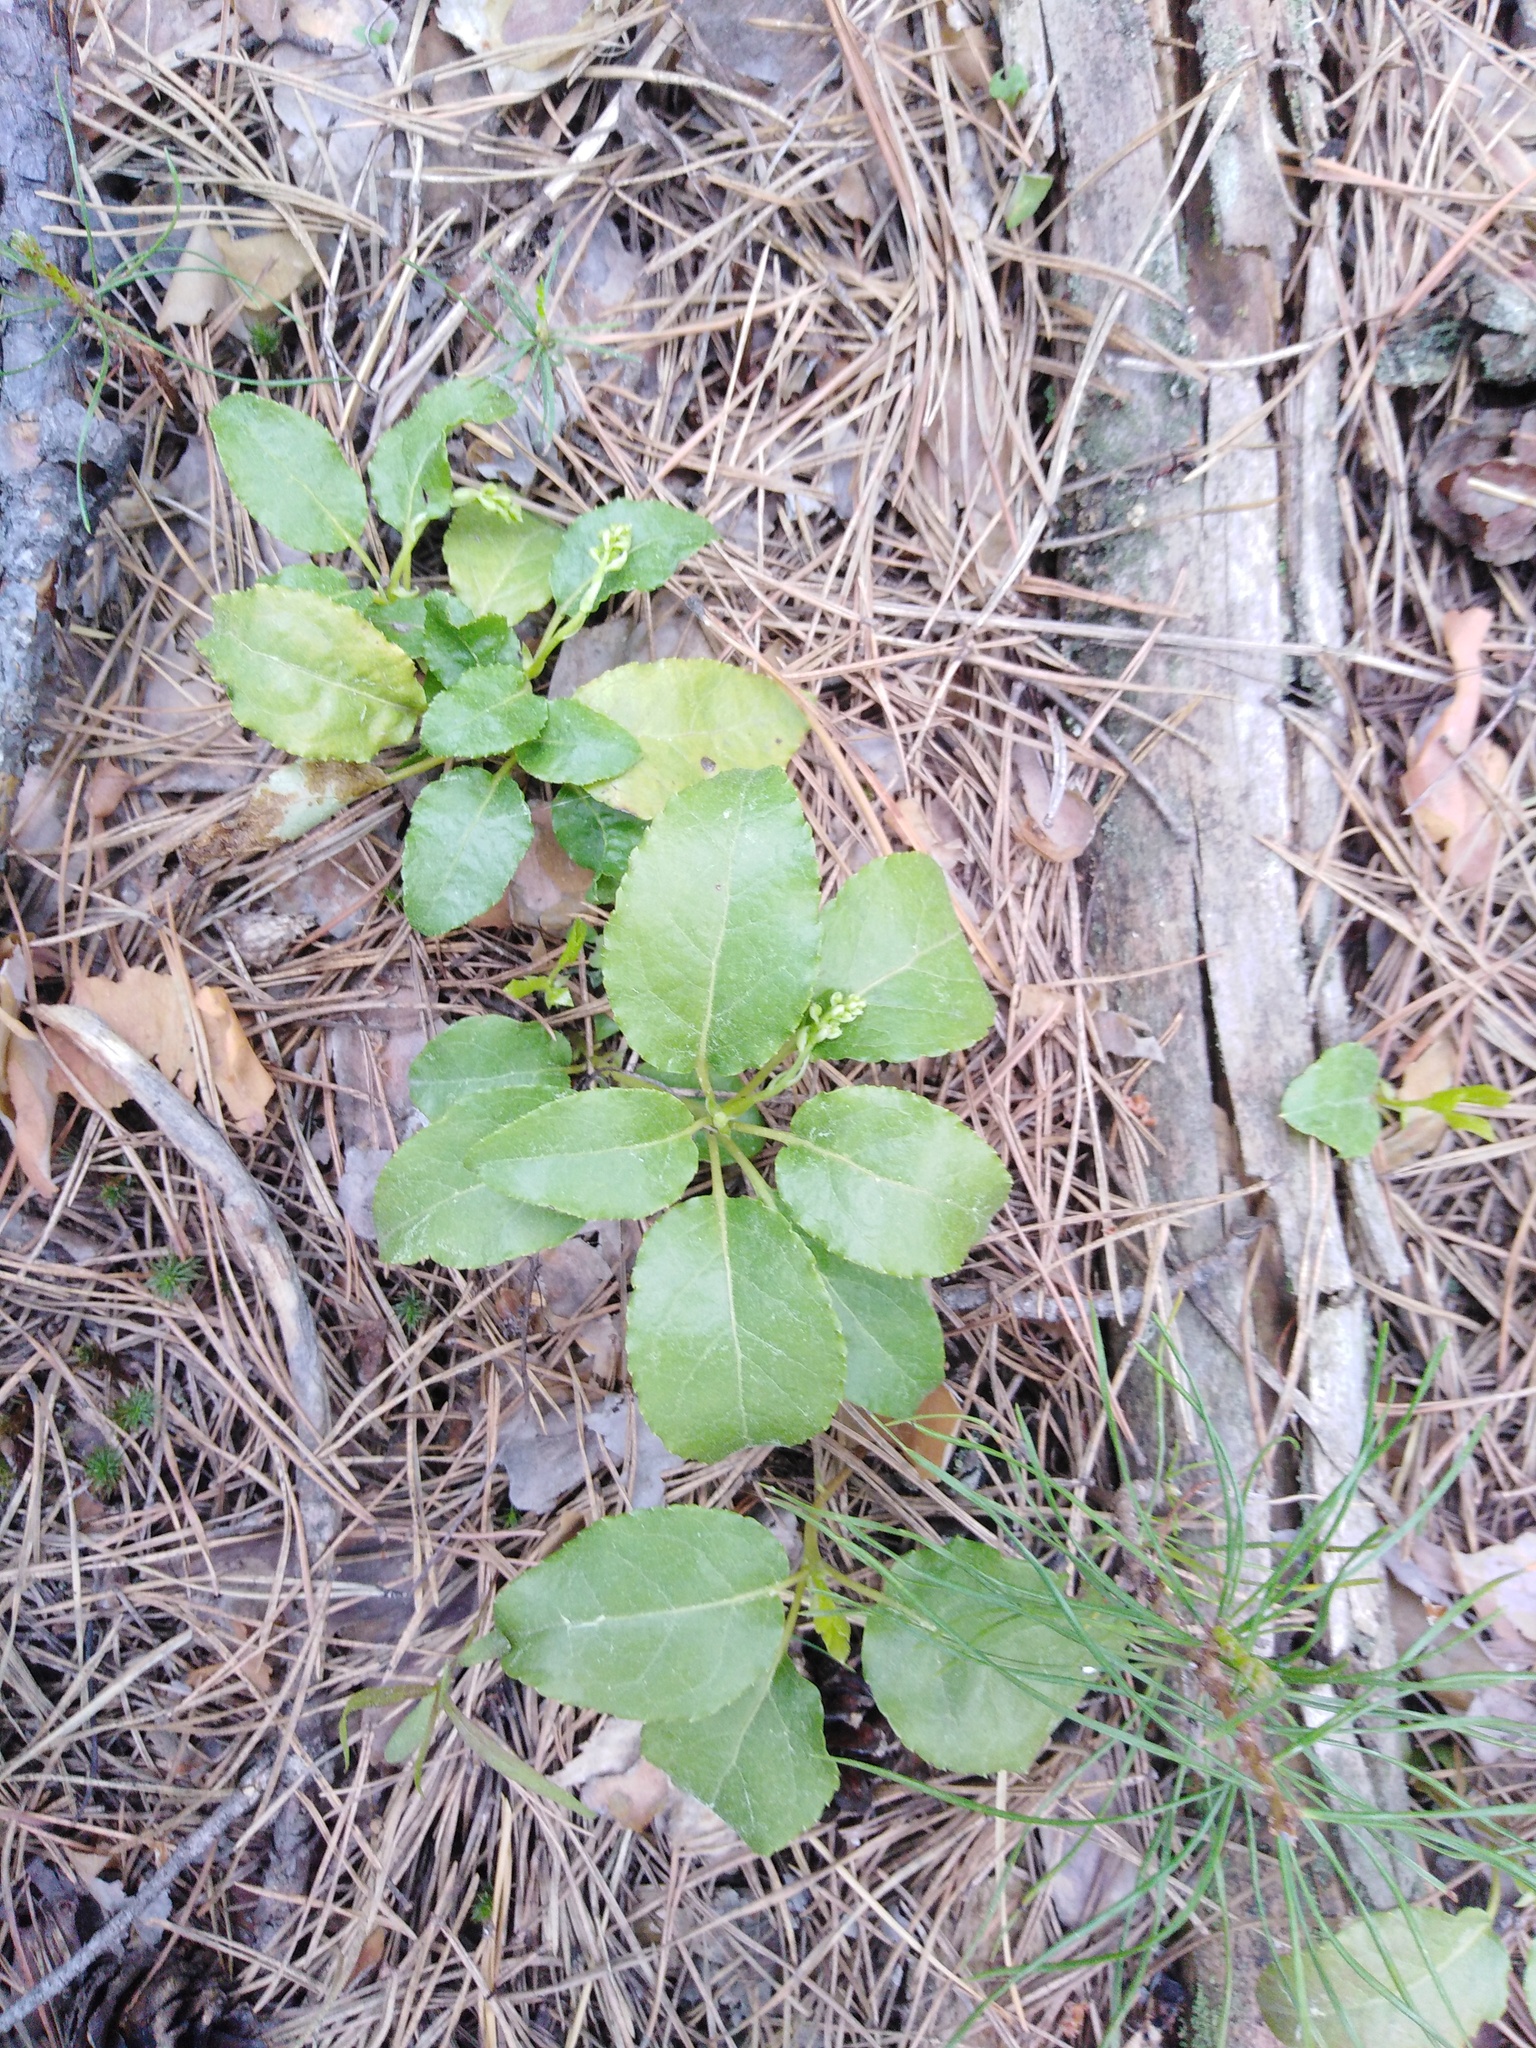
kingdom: Plantae
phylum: Tracheophyta
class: Magnoliopsida
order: Ericales
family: Ericaceae
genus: Orthilia
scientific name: Orthilia secunda
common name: One-sided orthilia
